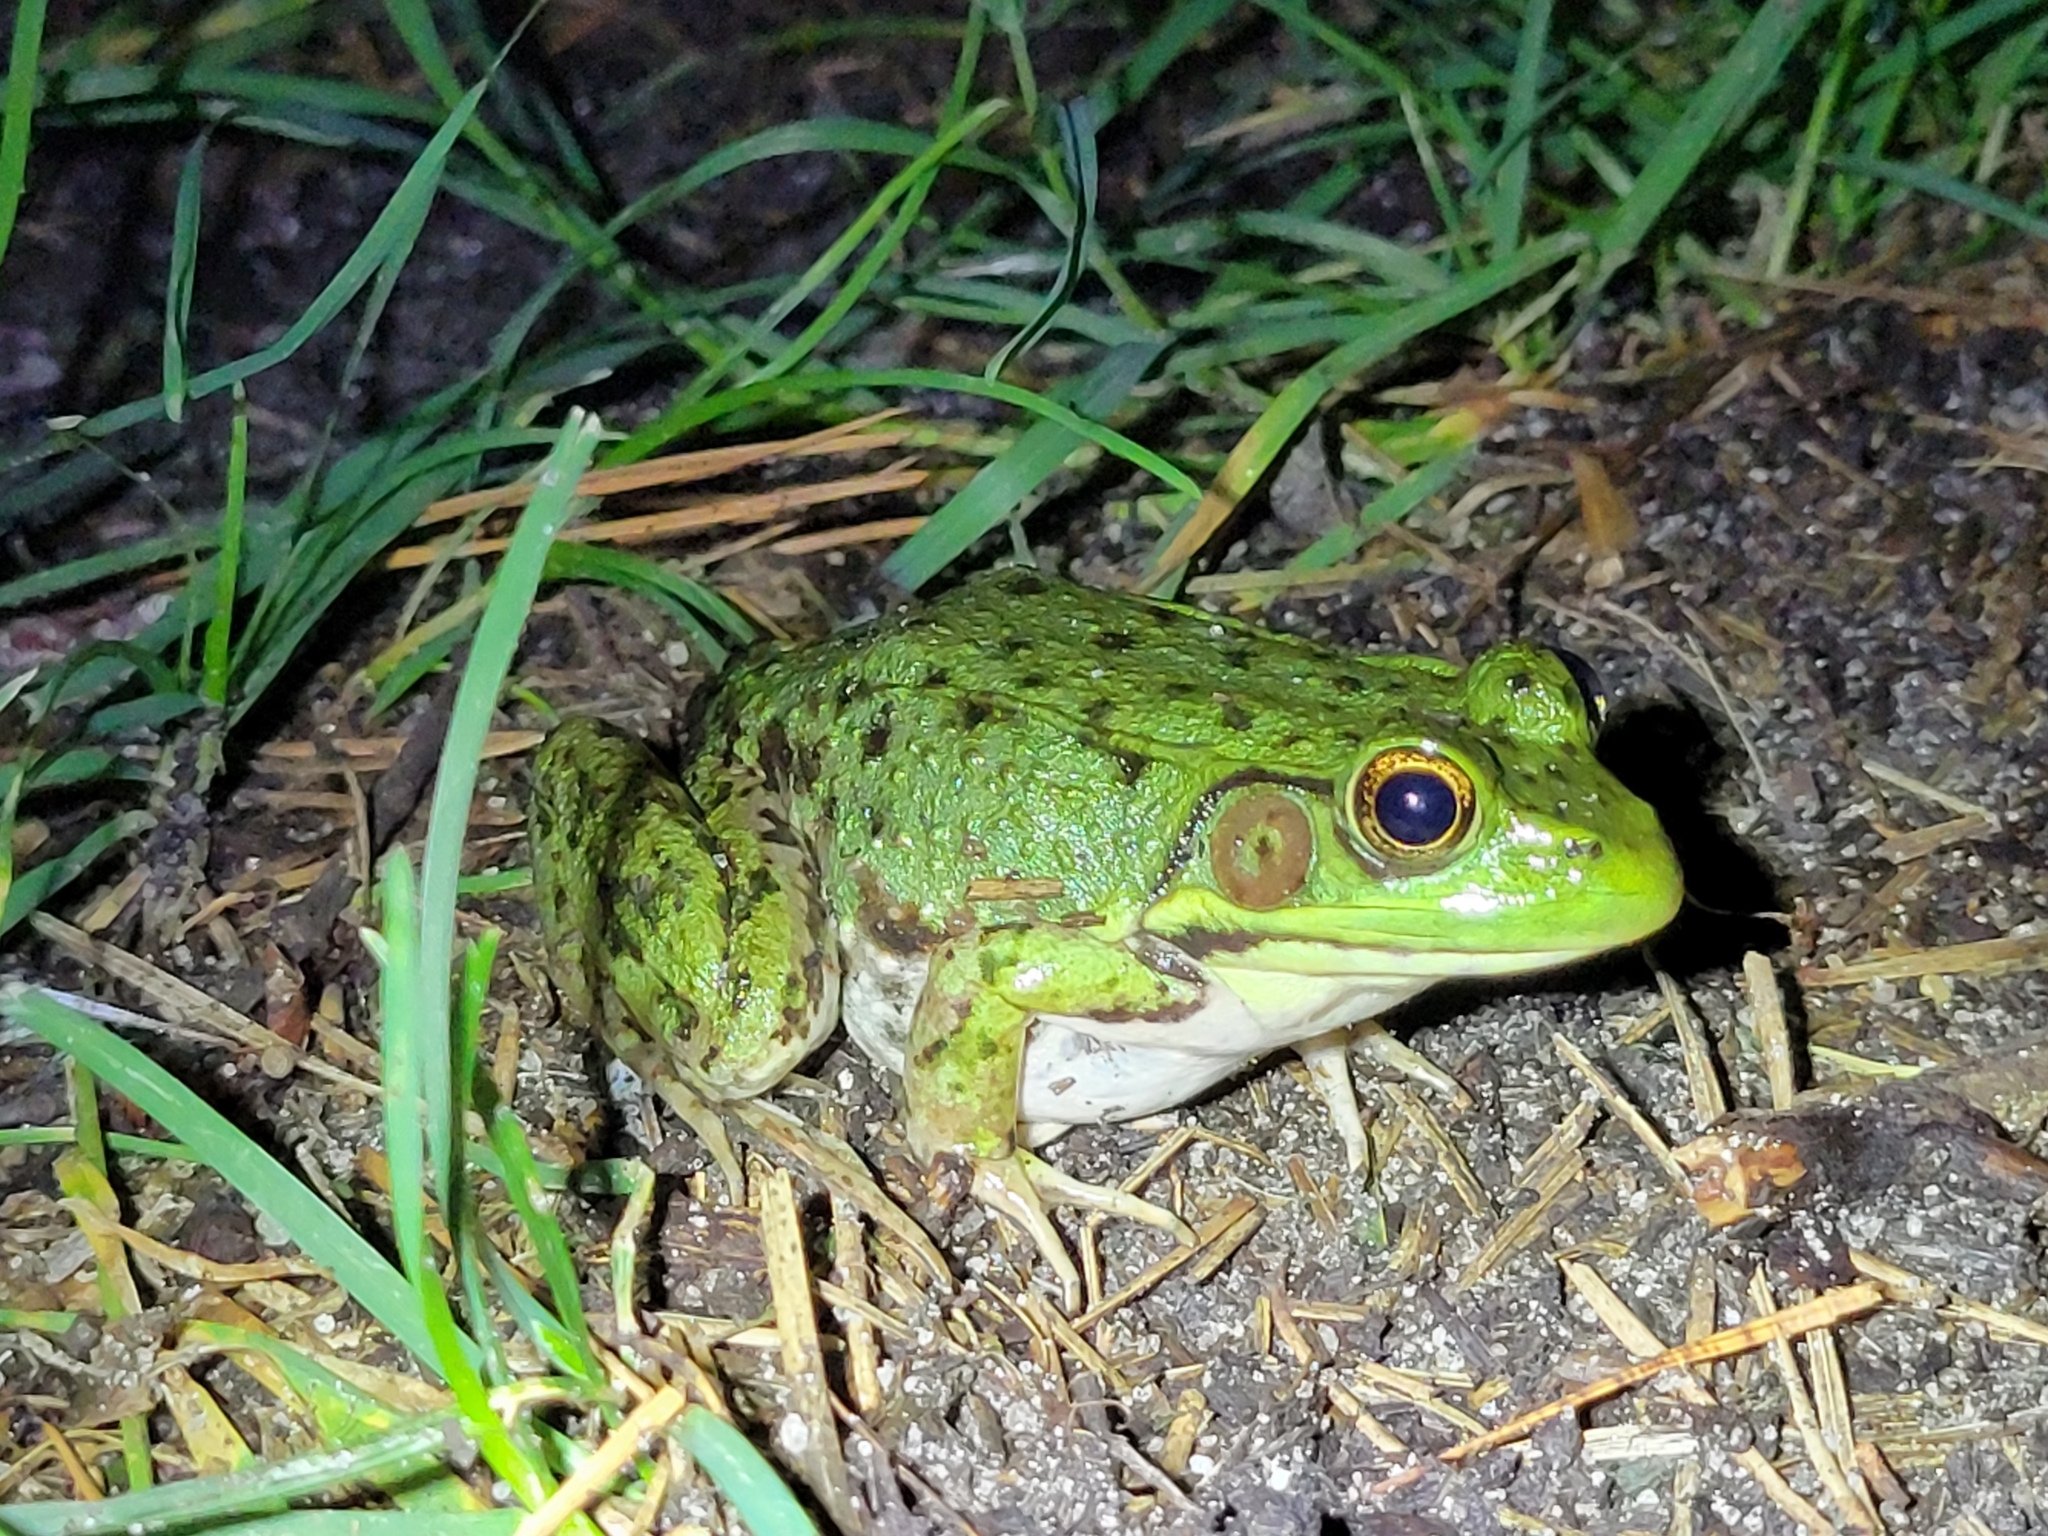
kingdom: Animalia
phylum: Chordata
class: Amphibia
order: Anura
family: Ranidae
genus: Lithobates
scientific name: Lithobates clamitans
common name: Green frog
